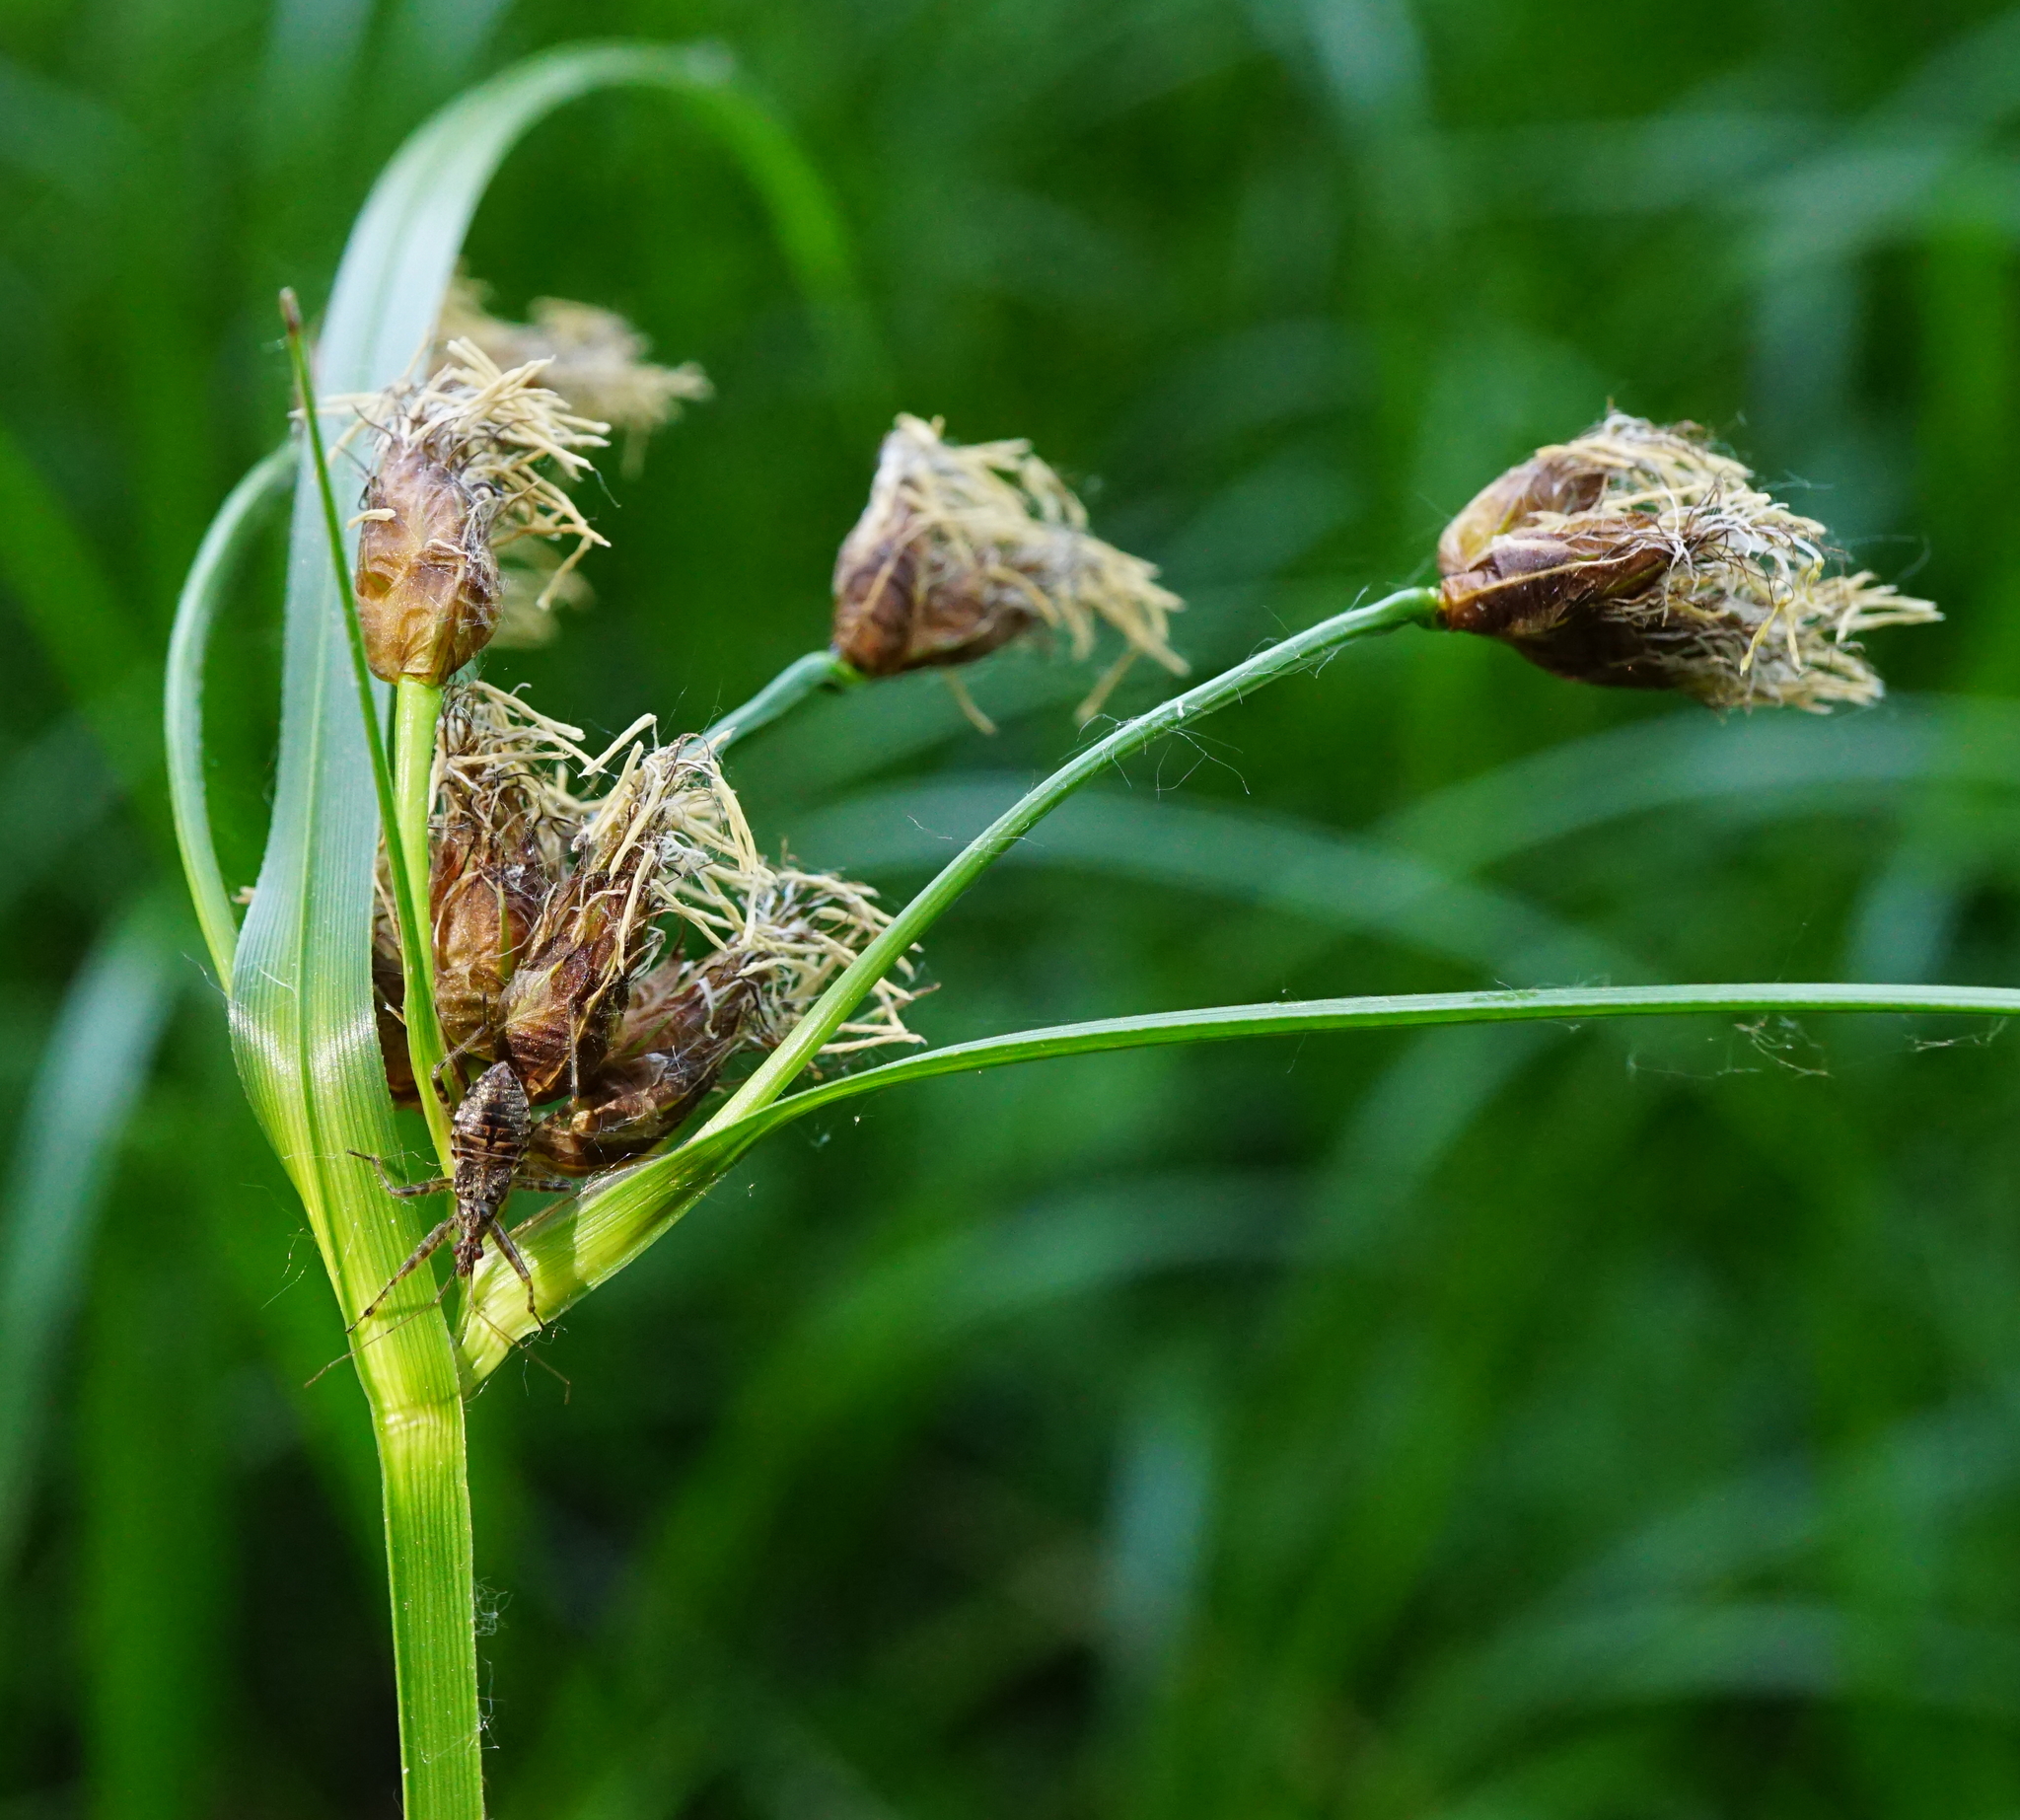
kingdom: Animalia
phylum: Arthropoda
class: Insecta
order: Hemiptera
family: Nabidae
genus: Himacerus
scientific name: Himacerus apterus
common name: Tree damsel bug
